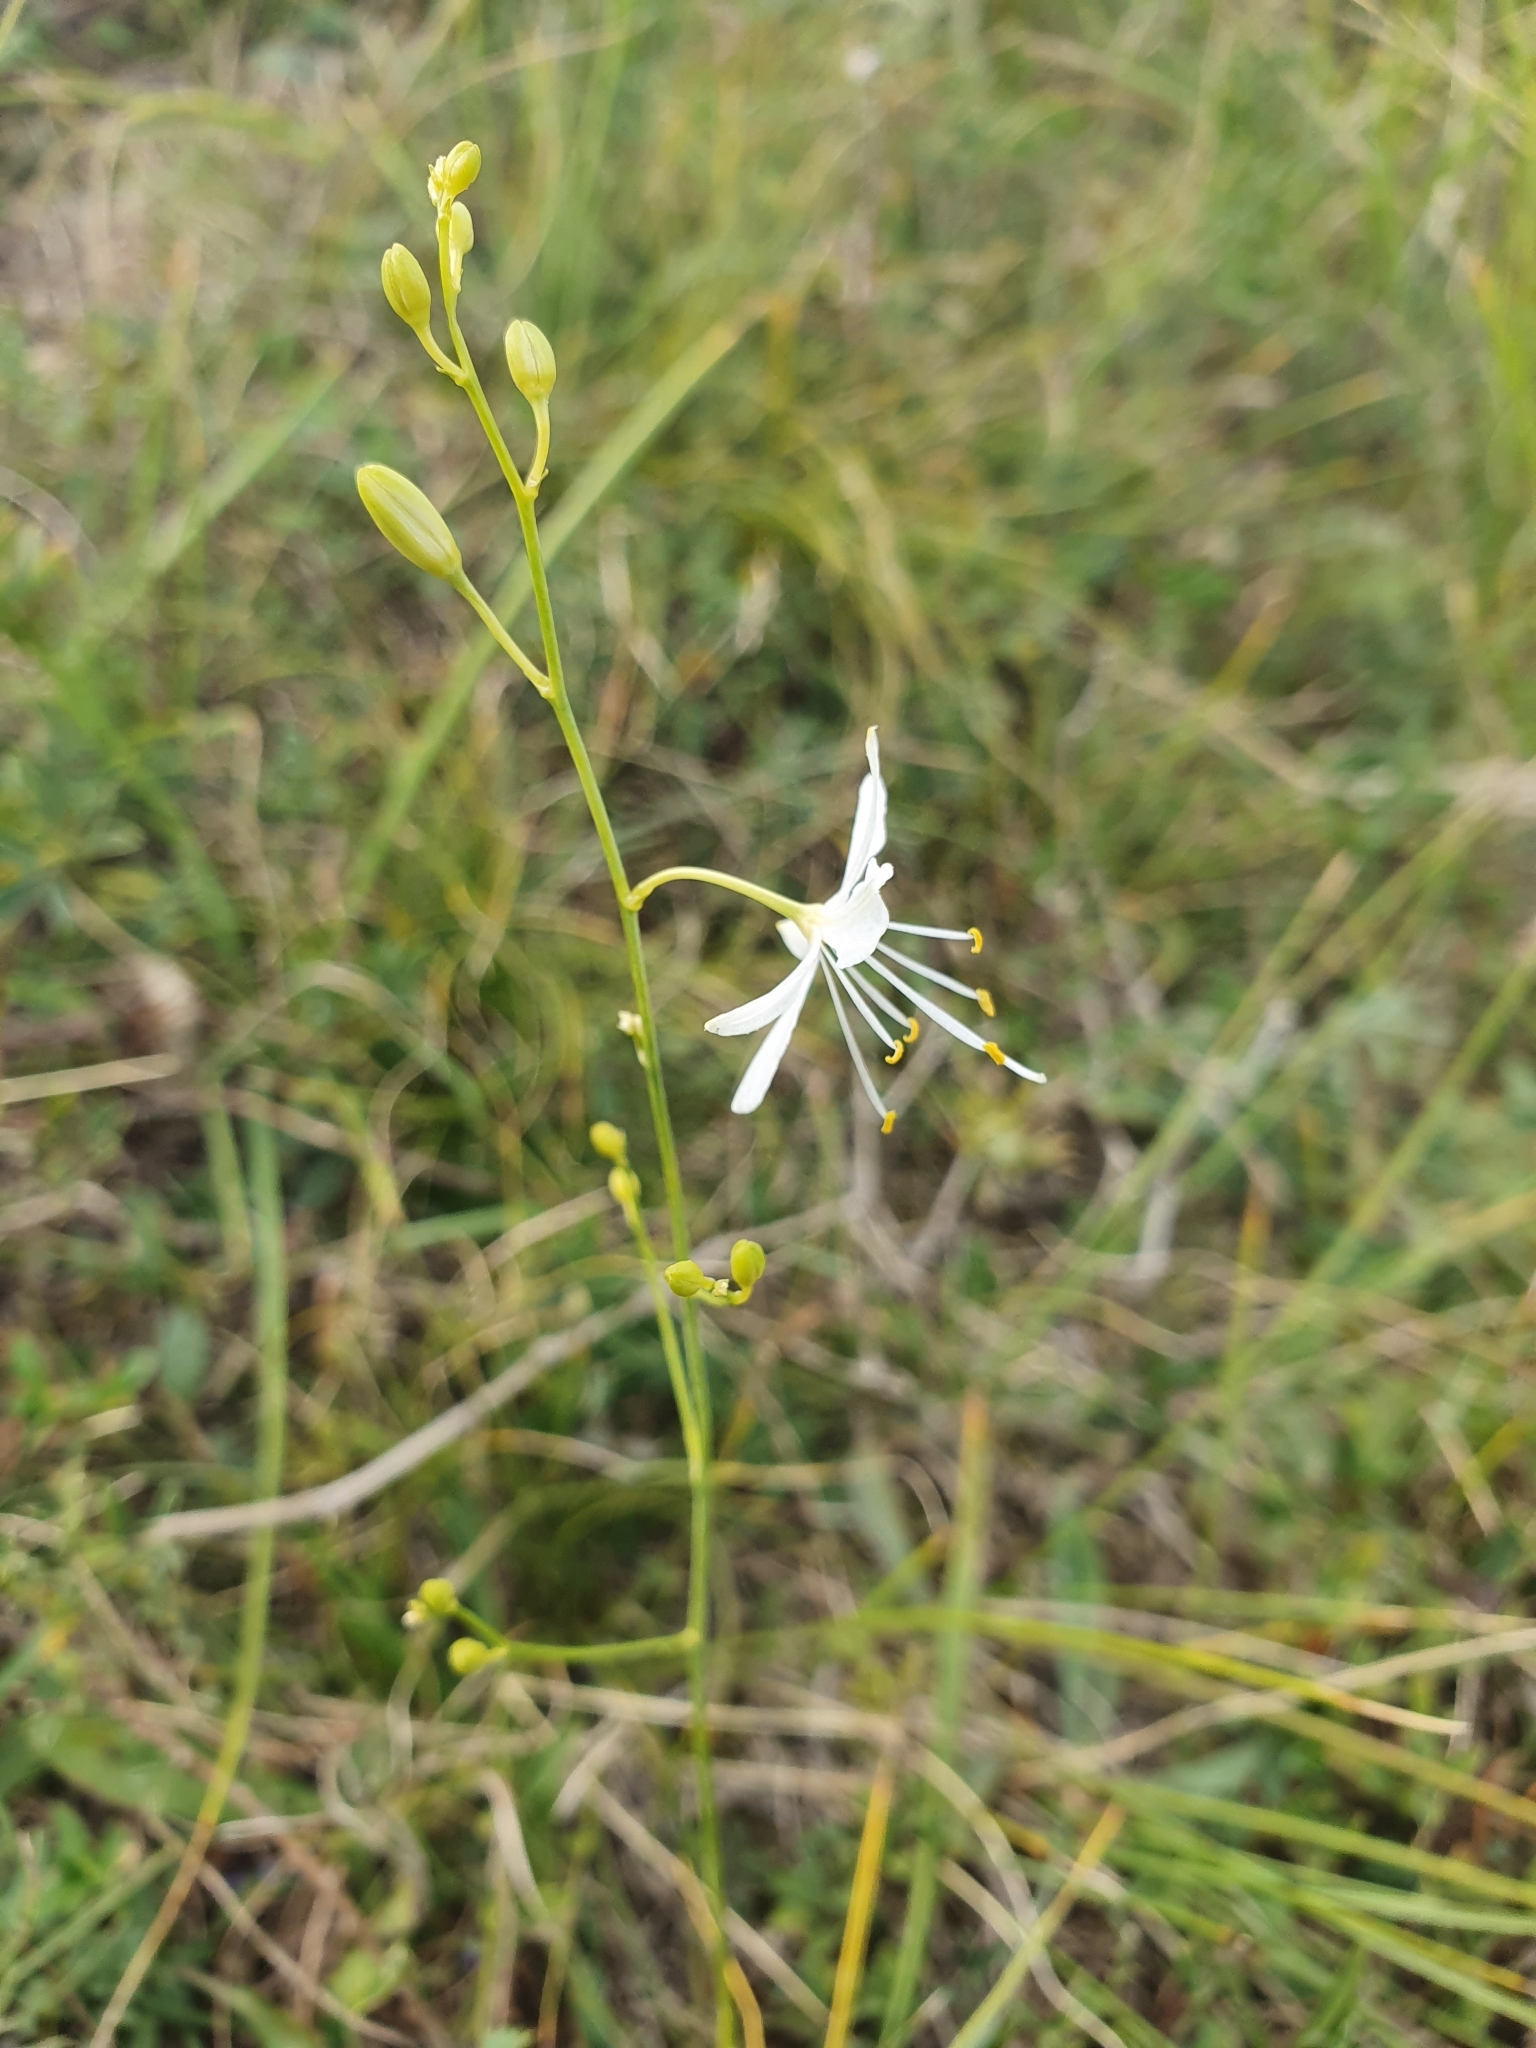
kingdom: Plantae
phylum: Tracheophyta
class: Liliopsida
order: Asparagales
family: Asparagaceae
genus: Anthericum
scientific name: Anthericum ramosum
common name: Branched st. bernard's-lily
